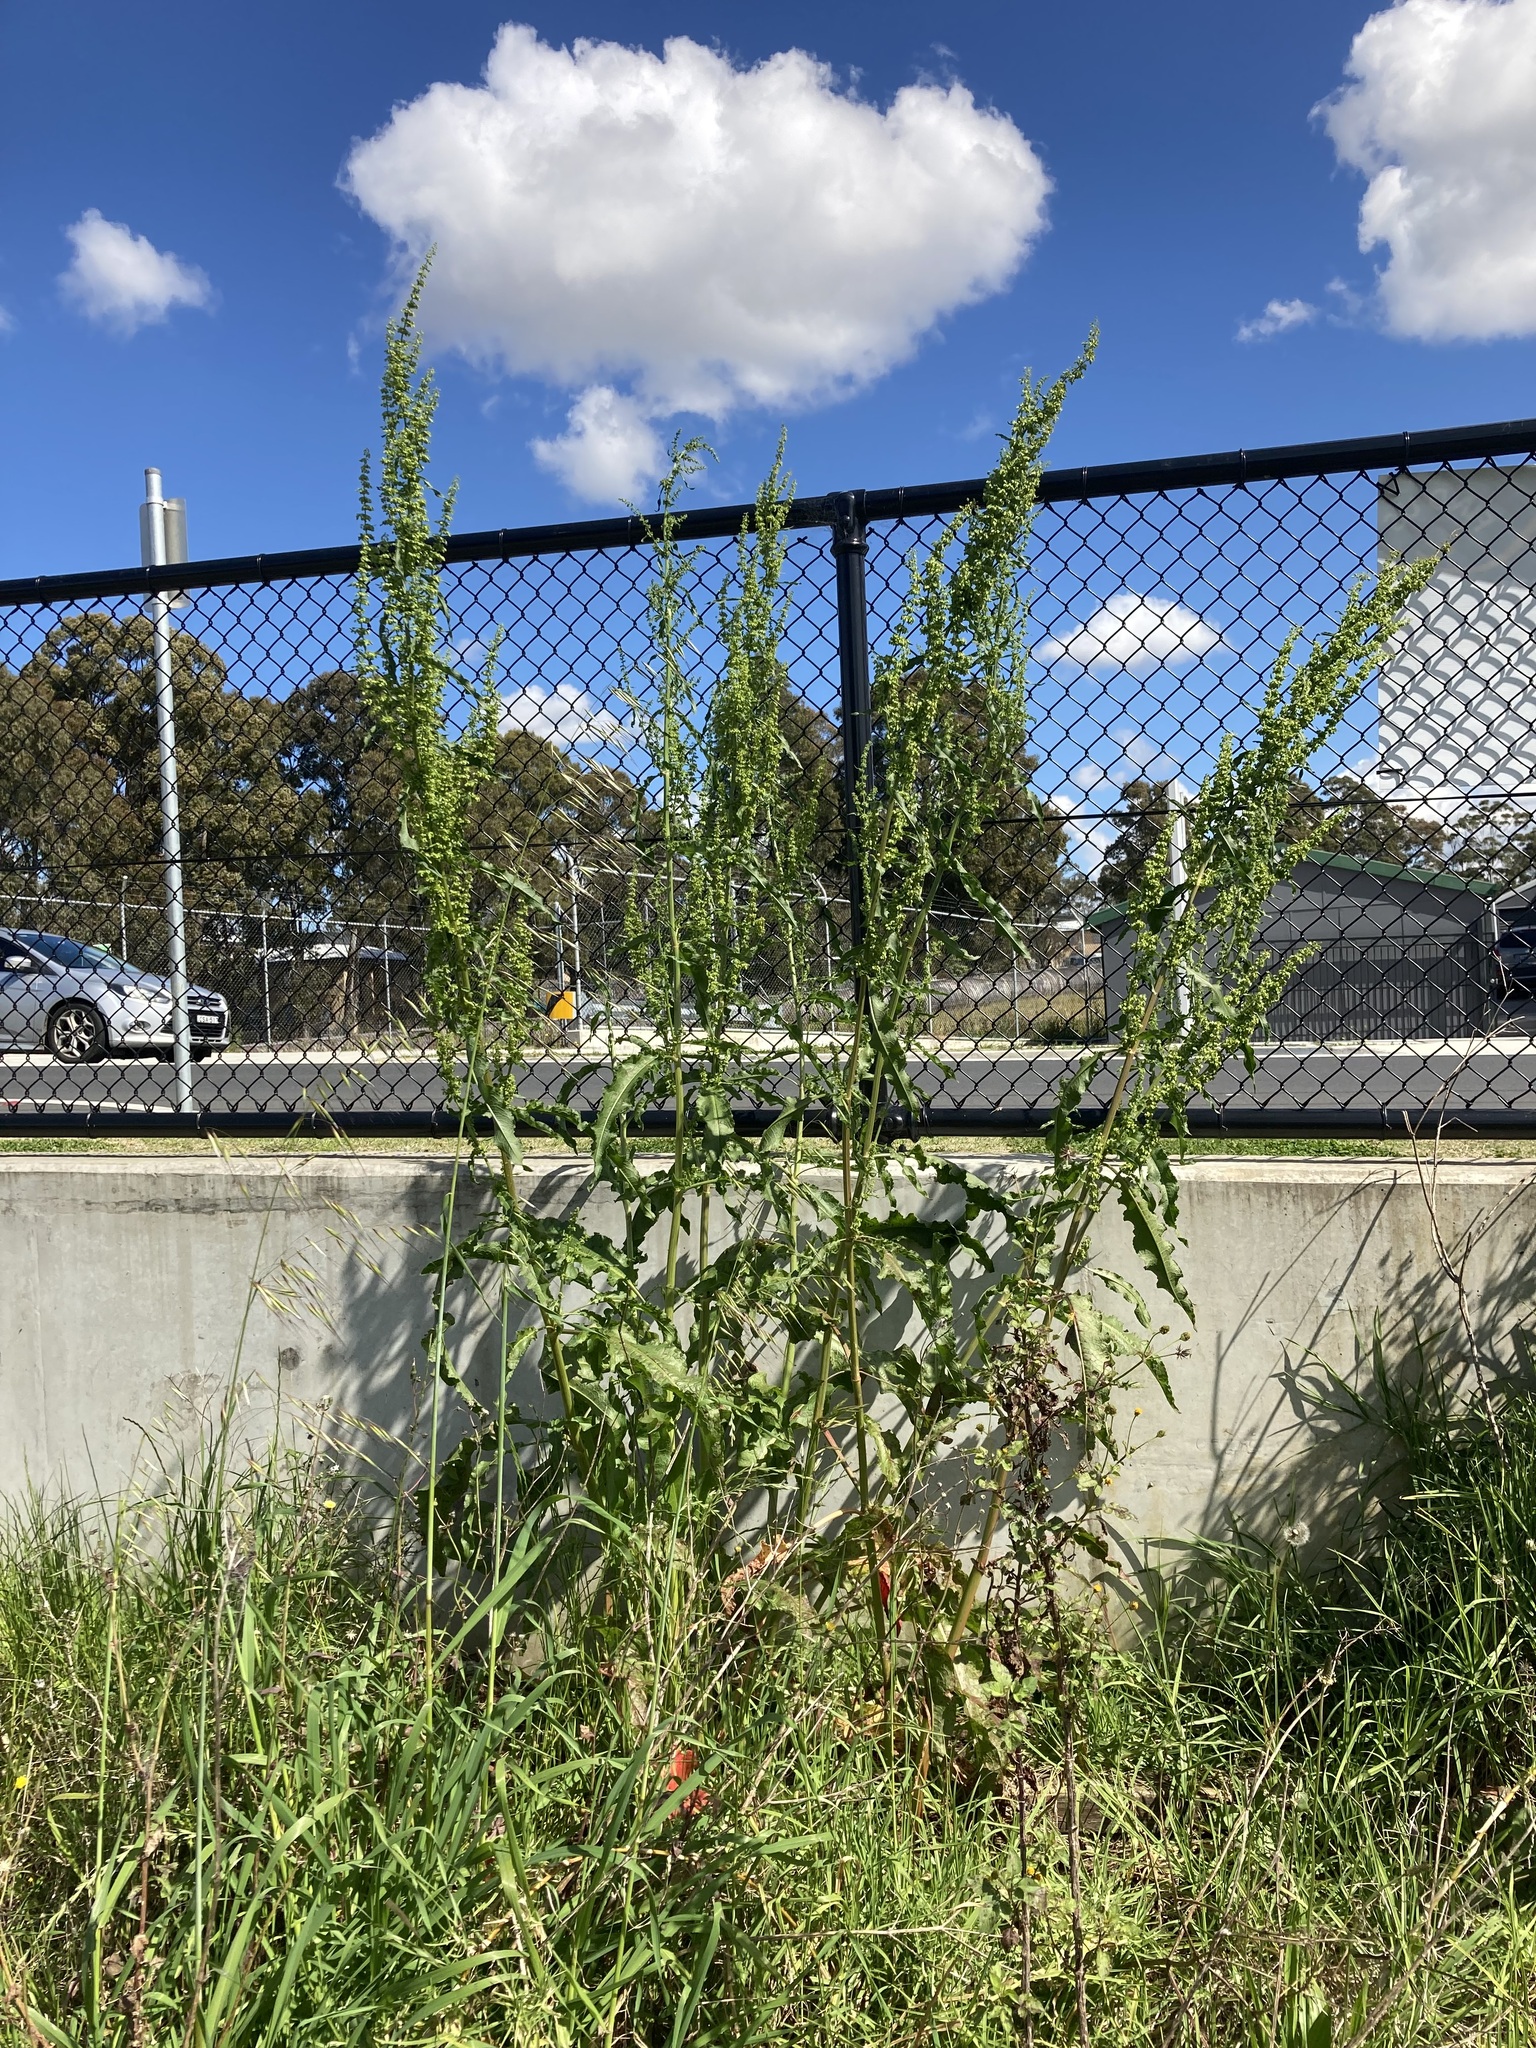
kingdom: Plantae
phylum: Tracheophyta
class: Magnoliopsida
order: Caryophyllales
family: Polygonaceae
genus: Rumex
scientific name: Rumex crispus
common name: Curled dock
